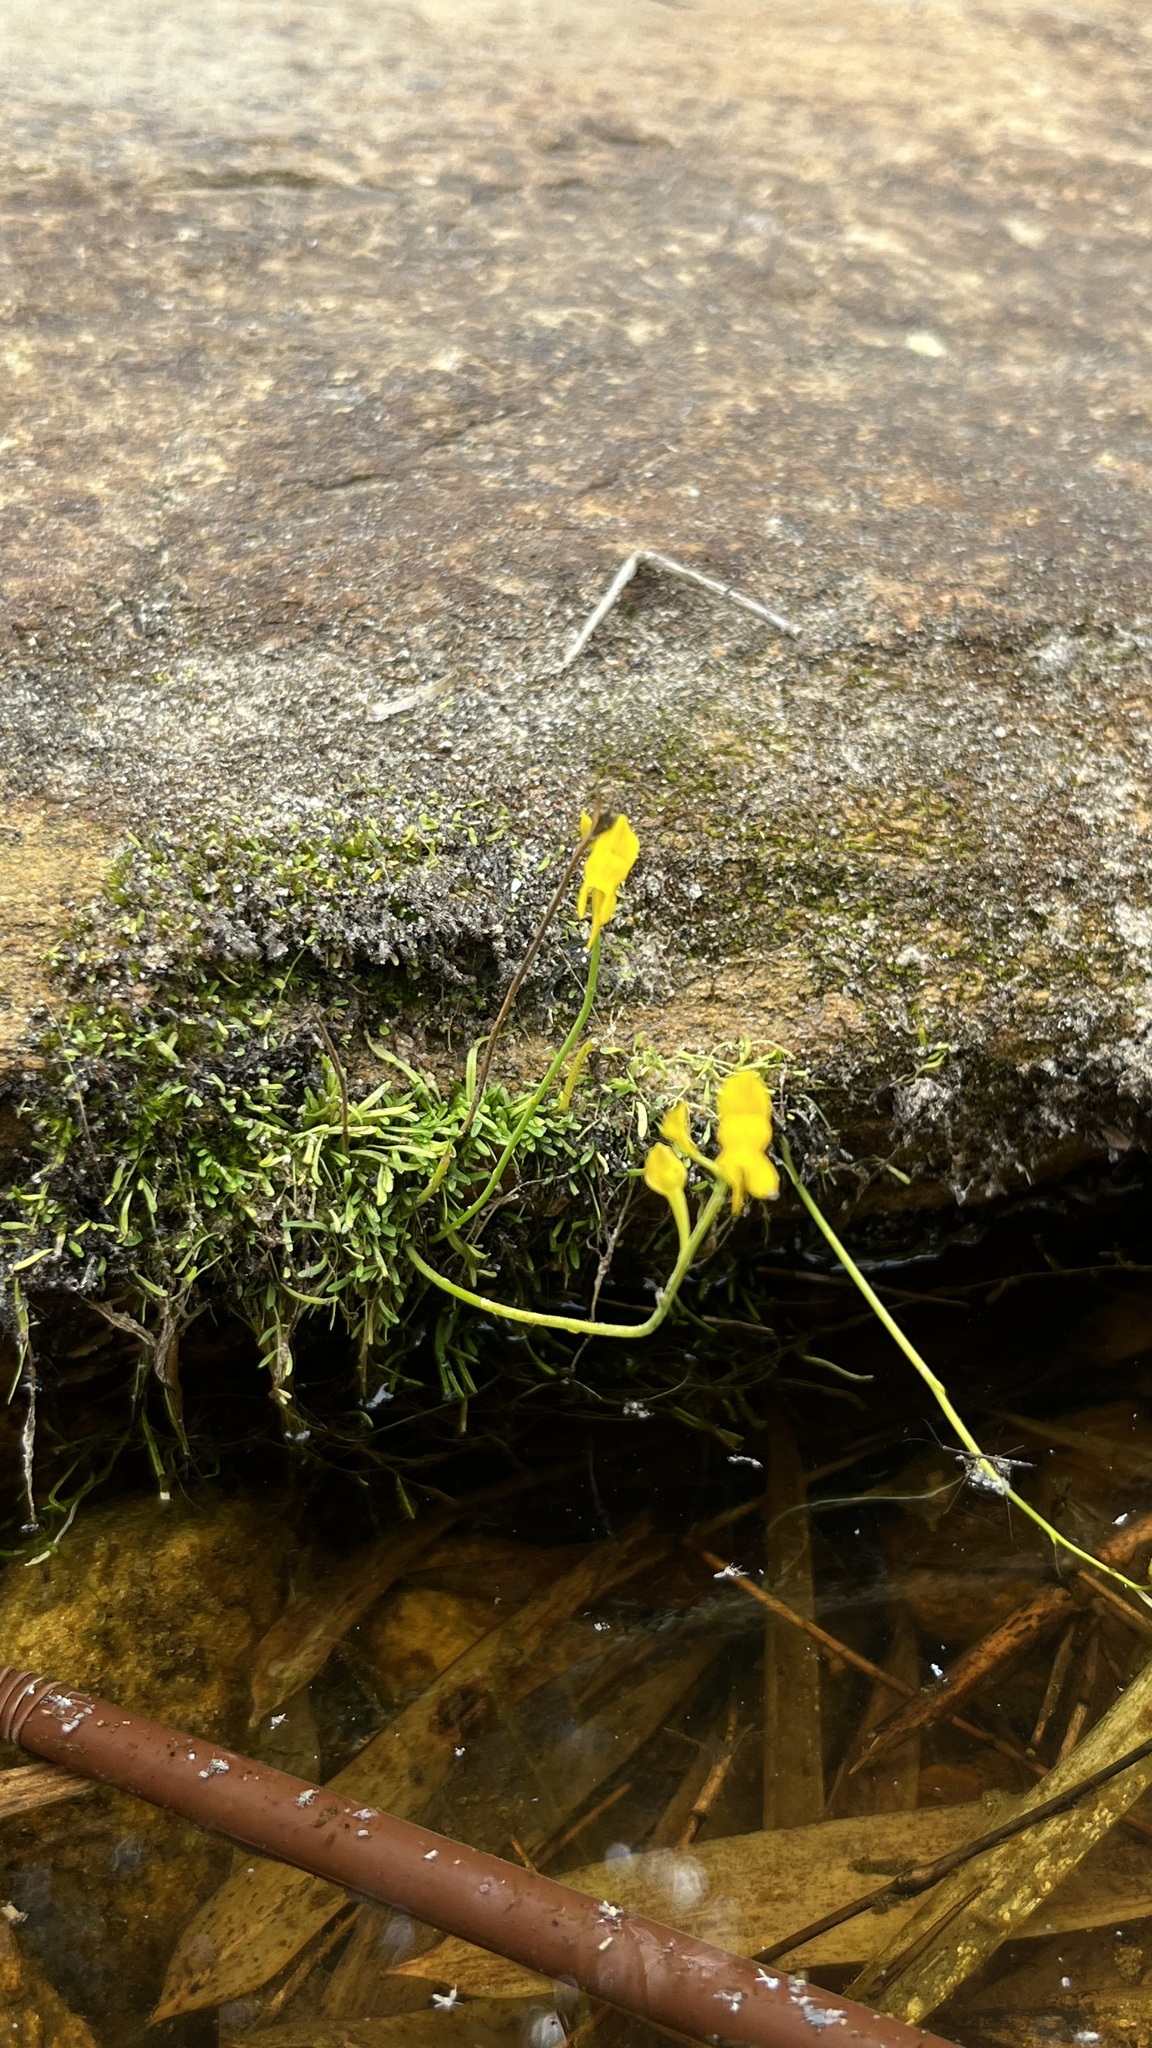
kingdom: Plantae
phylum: Tracheophyta
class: Magnoliopsida
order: Lamiales
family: Lentibulariaceae
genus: Utricularia
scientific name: Utricularia odorata
